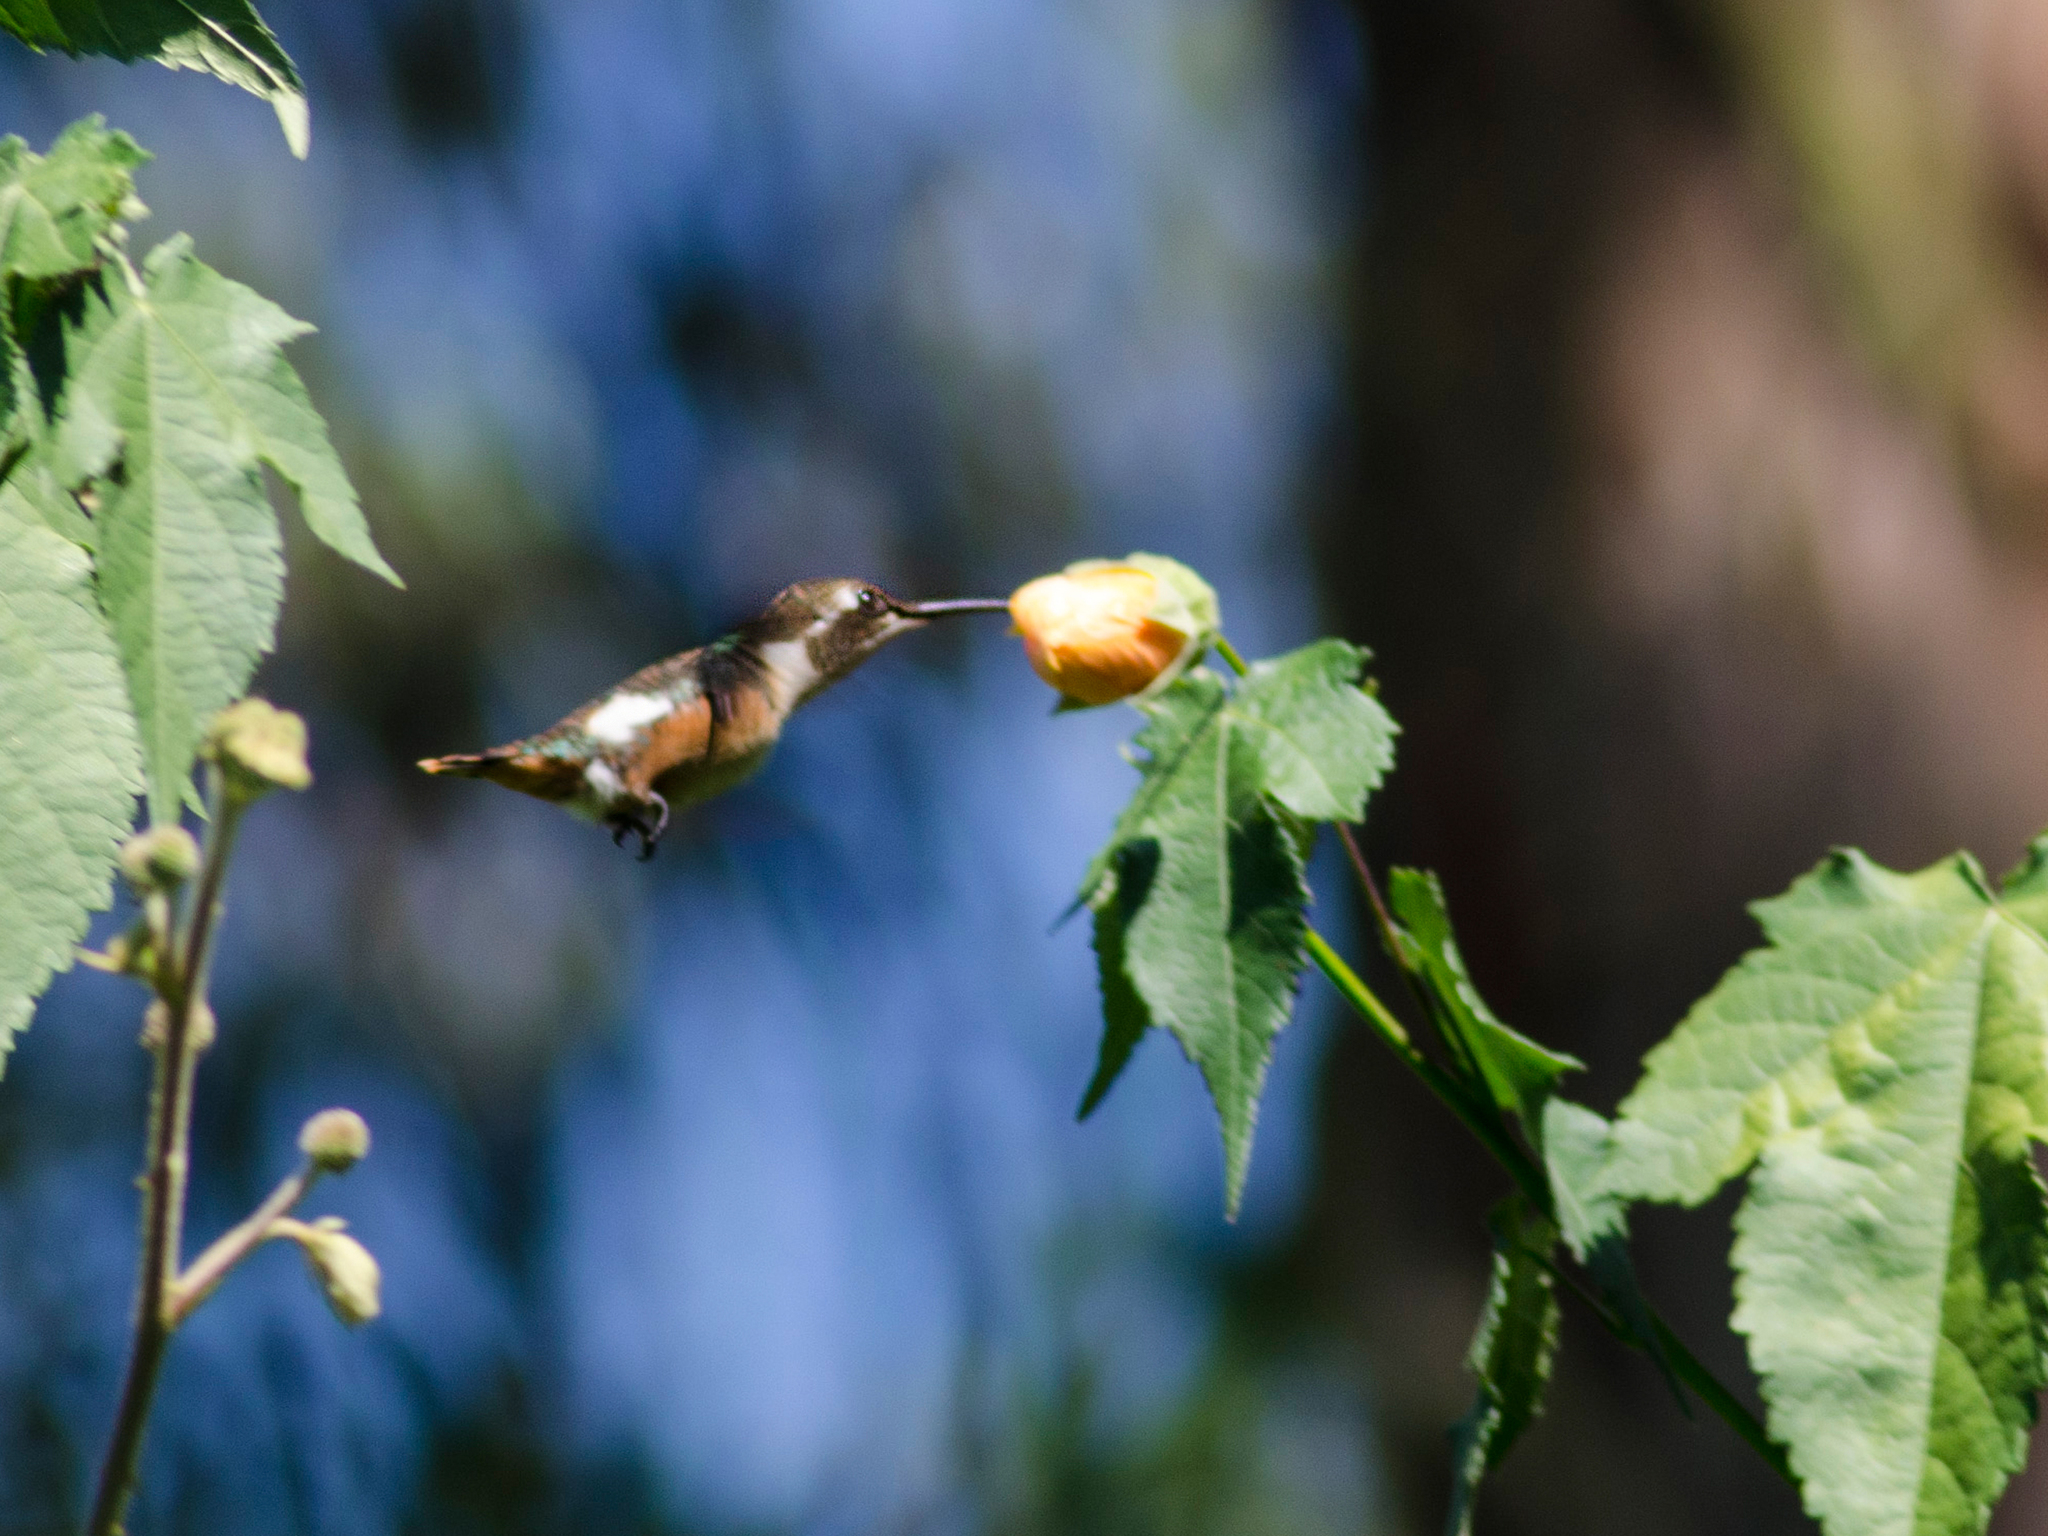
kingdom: Animalia
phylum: Chordata
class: Aves
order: Apodiformes
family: Trochilidae
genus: Chaetocercus
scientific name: Chaetocercus mulsant
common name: White-bellied woodstar
